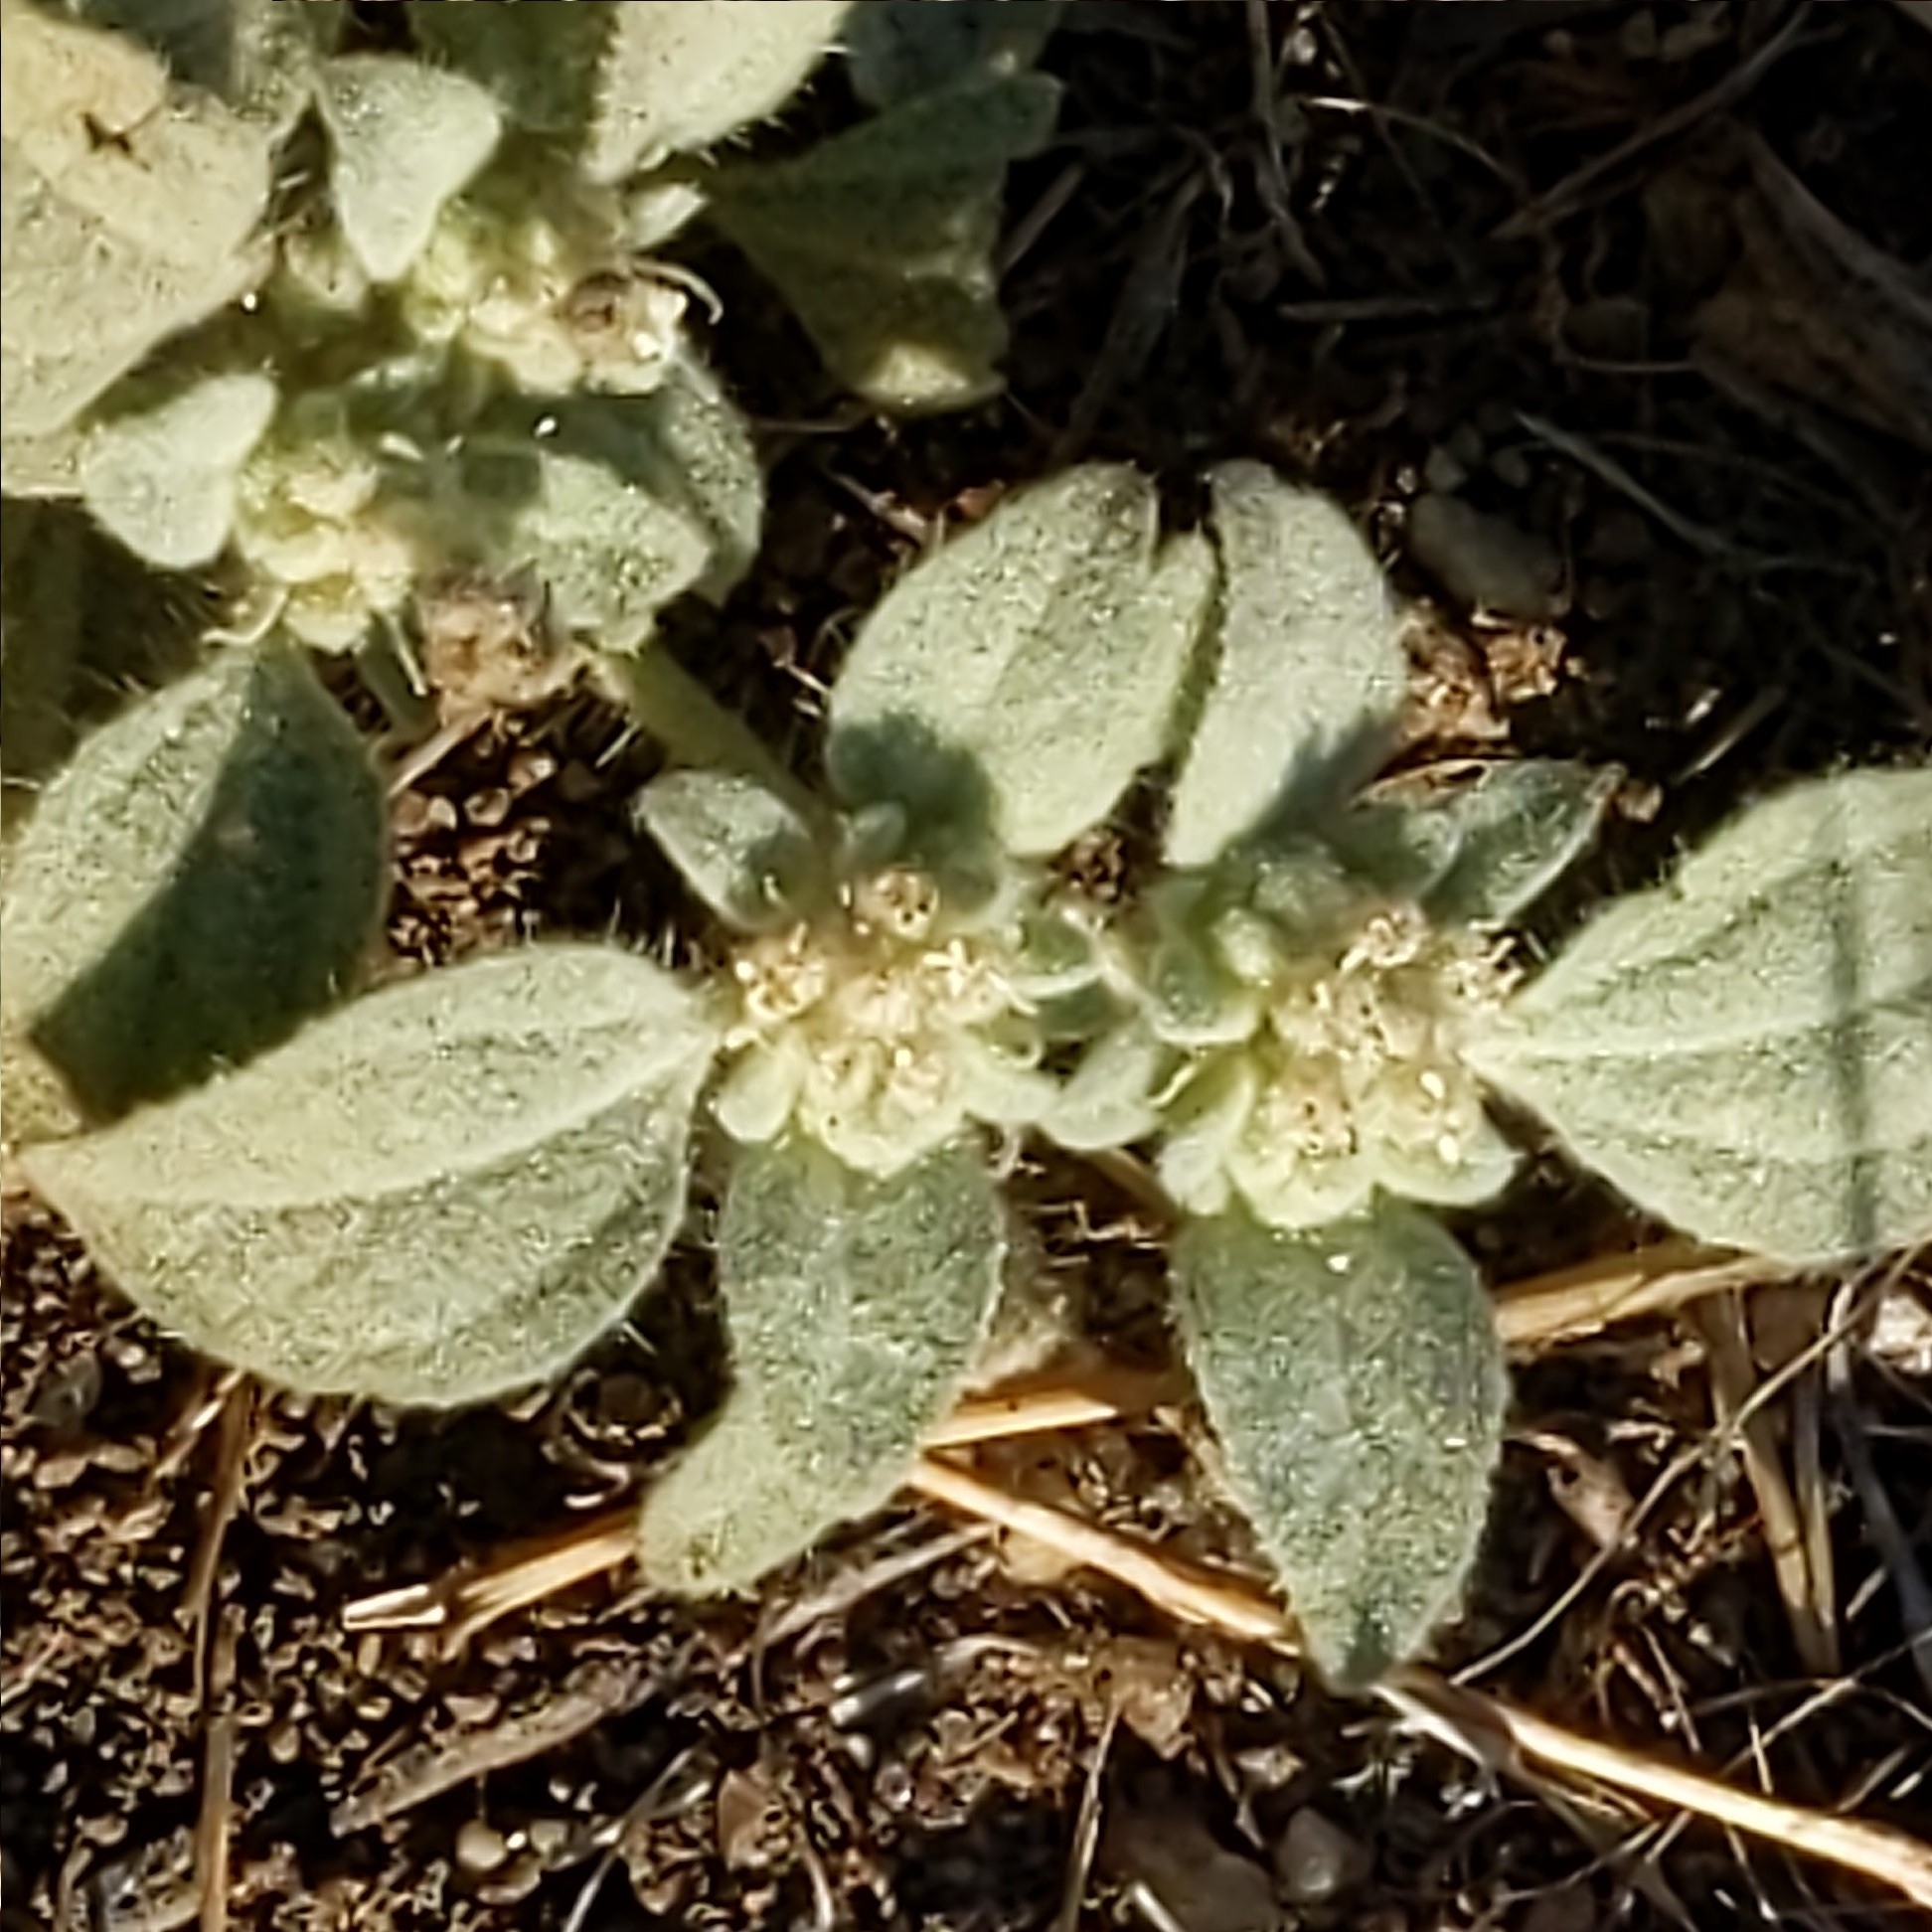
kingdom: Plantae
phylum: Tracheophyta
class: Magnoliopsida
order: Malpighiales
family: Euphorbiaceae
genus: Croton
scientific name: Croton setiger
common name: Dove weed
